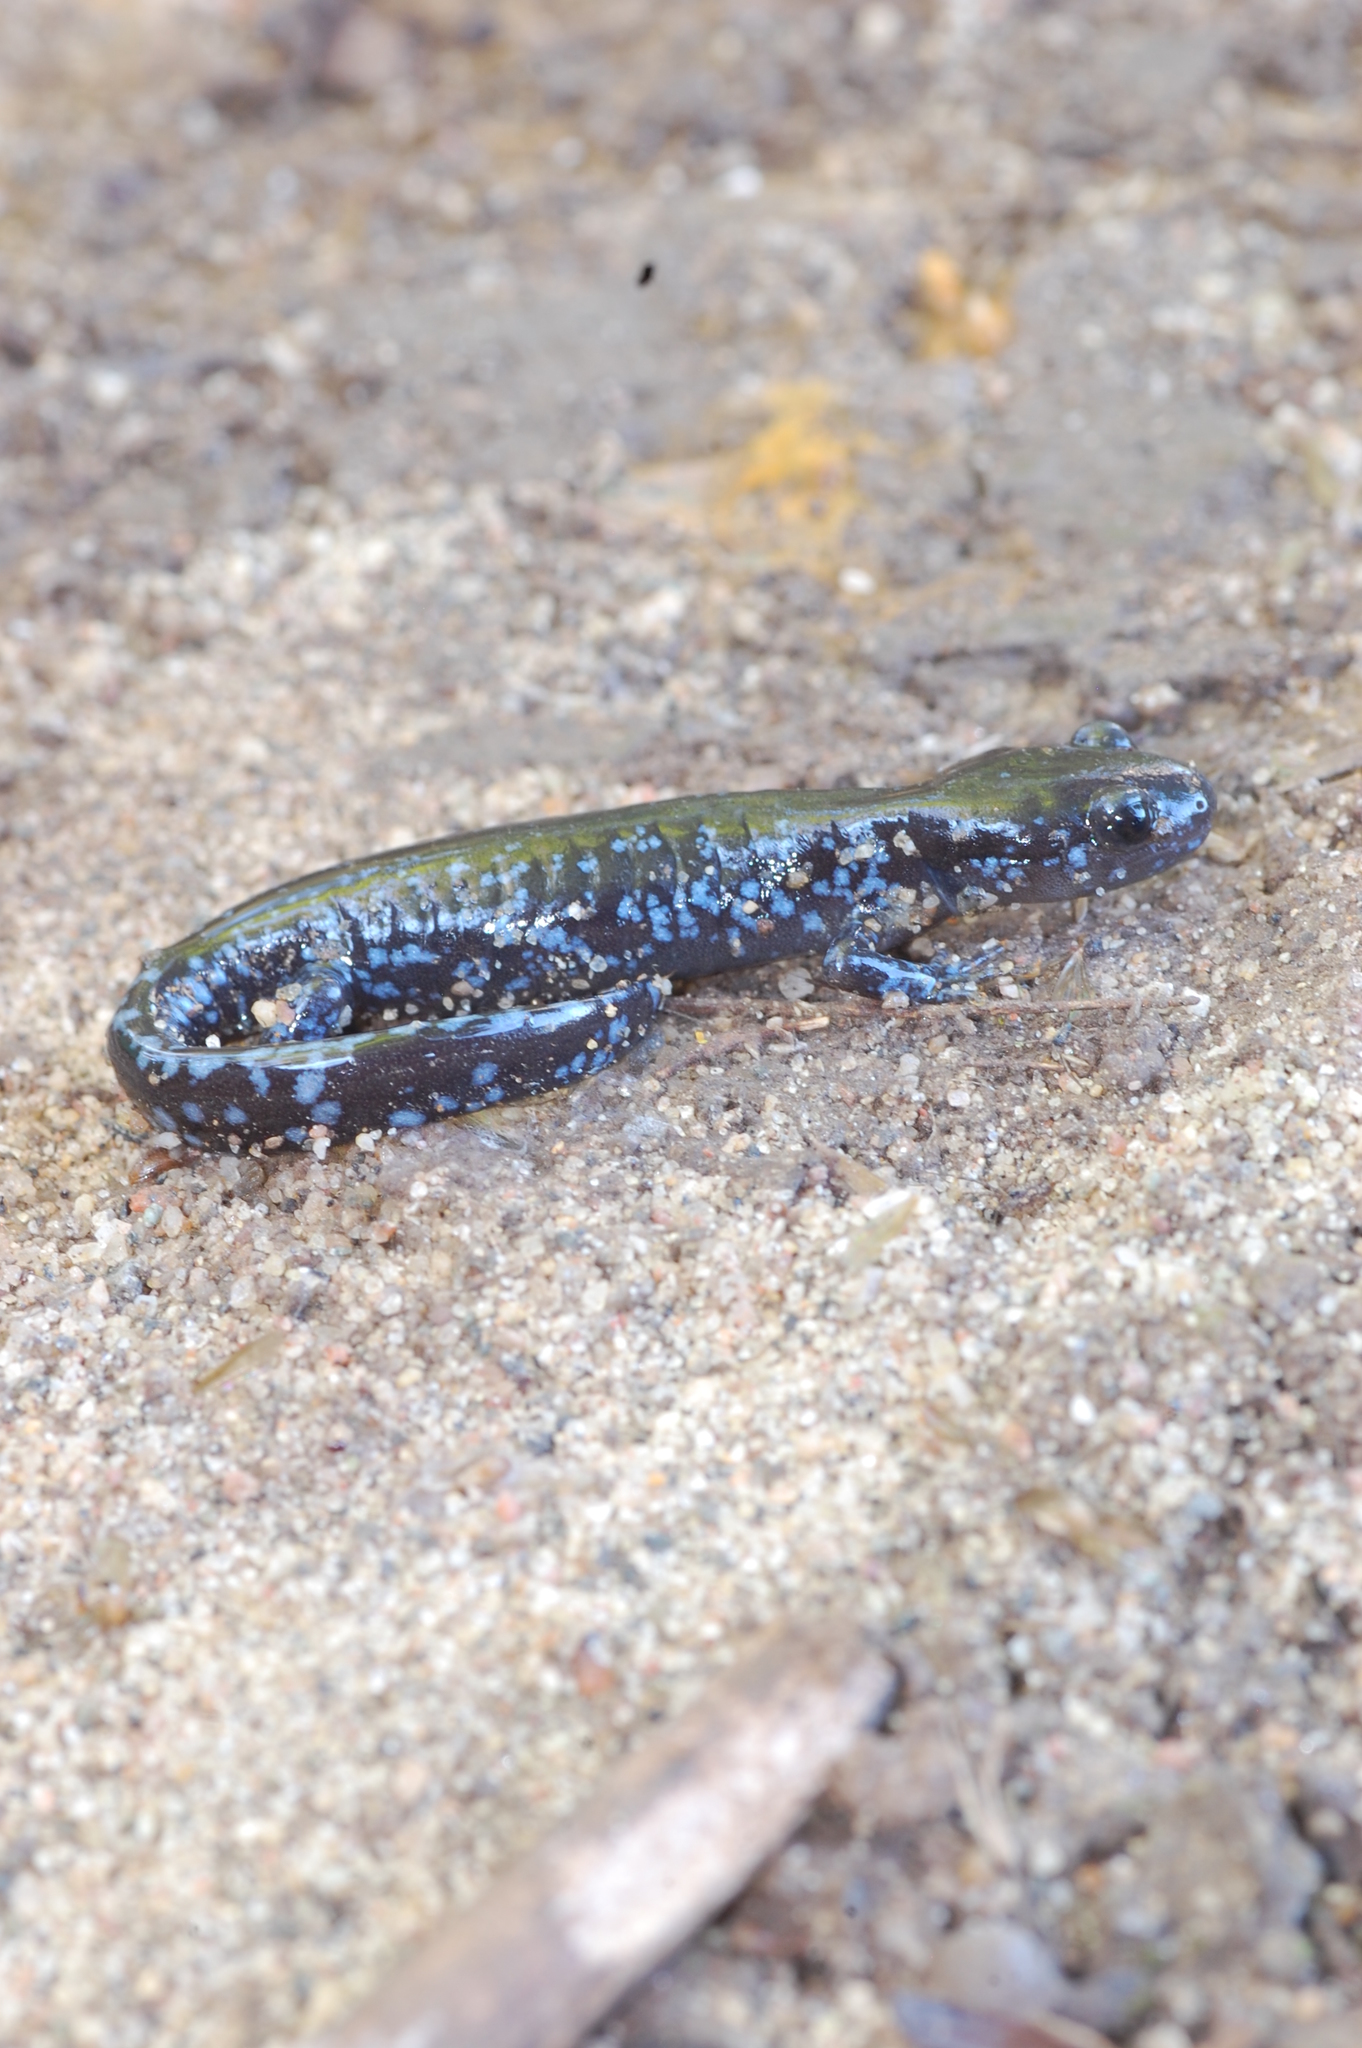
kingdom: Animalia
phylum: Chordata
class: Amphibia
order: Caudata
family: Ambystomatidae
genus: Ambystoma
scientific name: Ambystoma laterale
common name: Blue-spotted salamander
